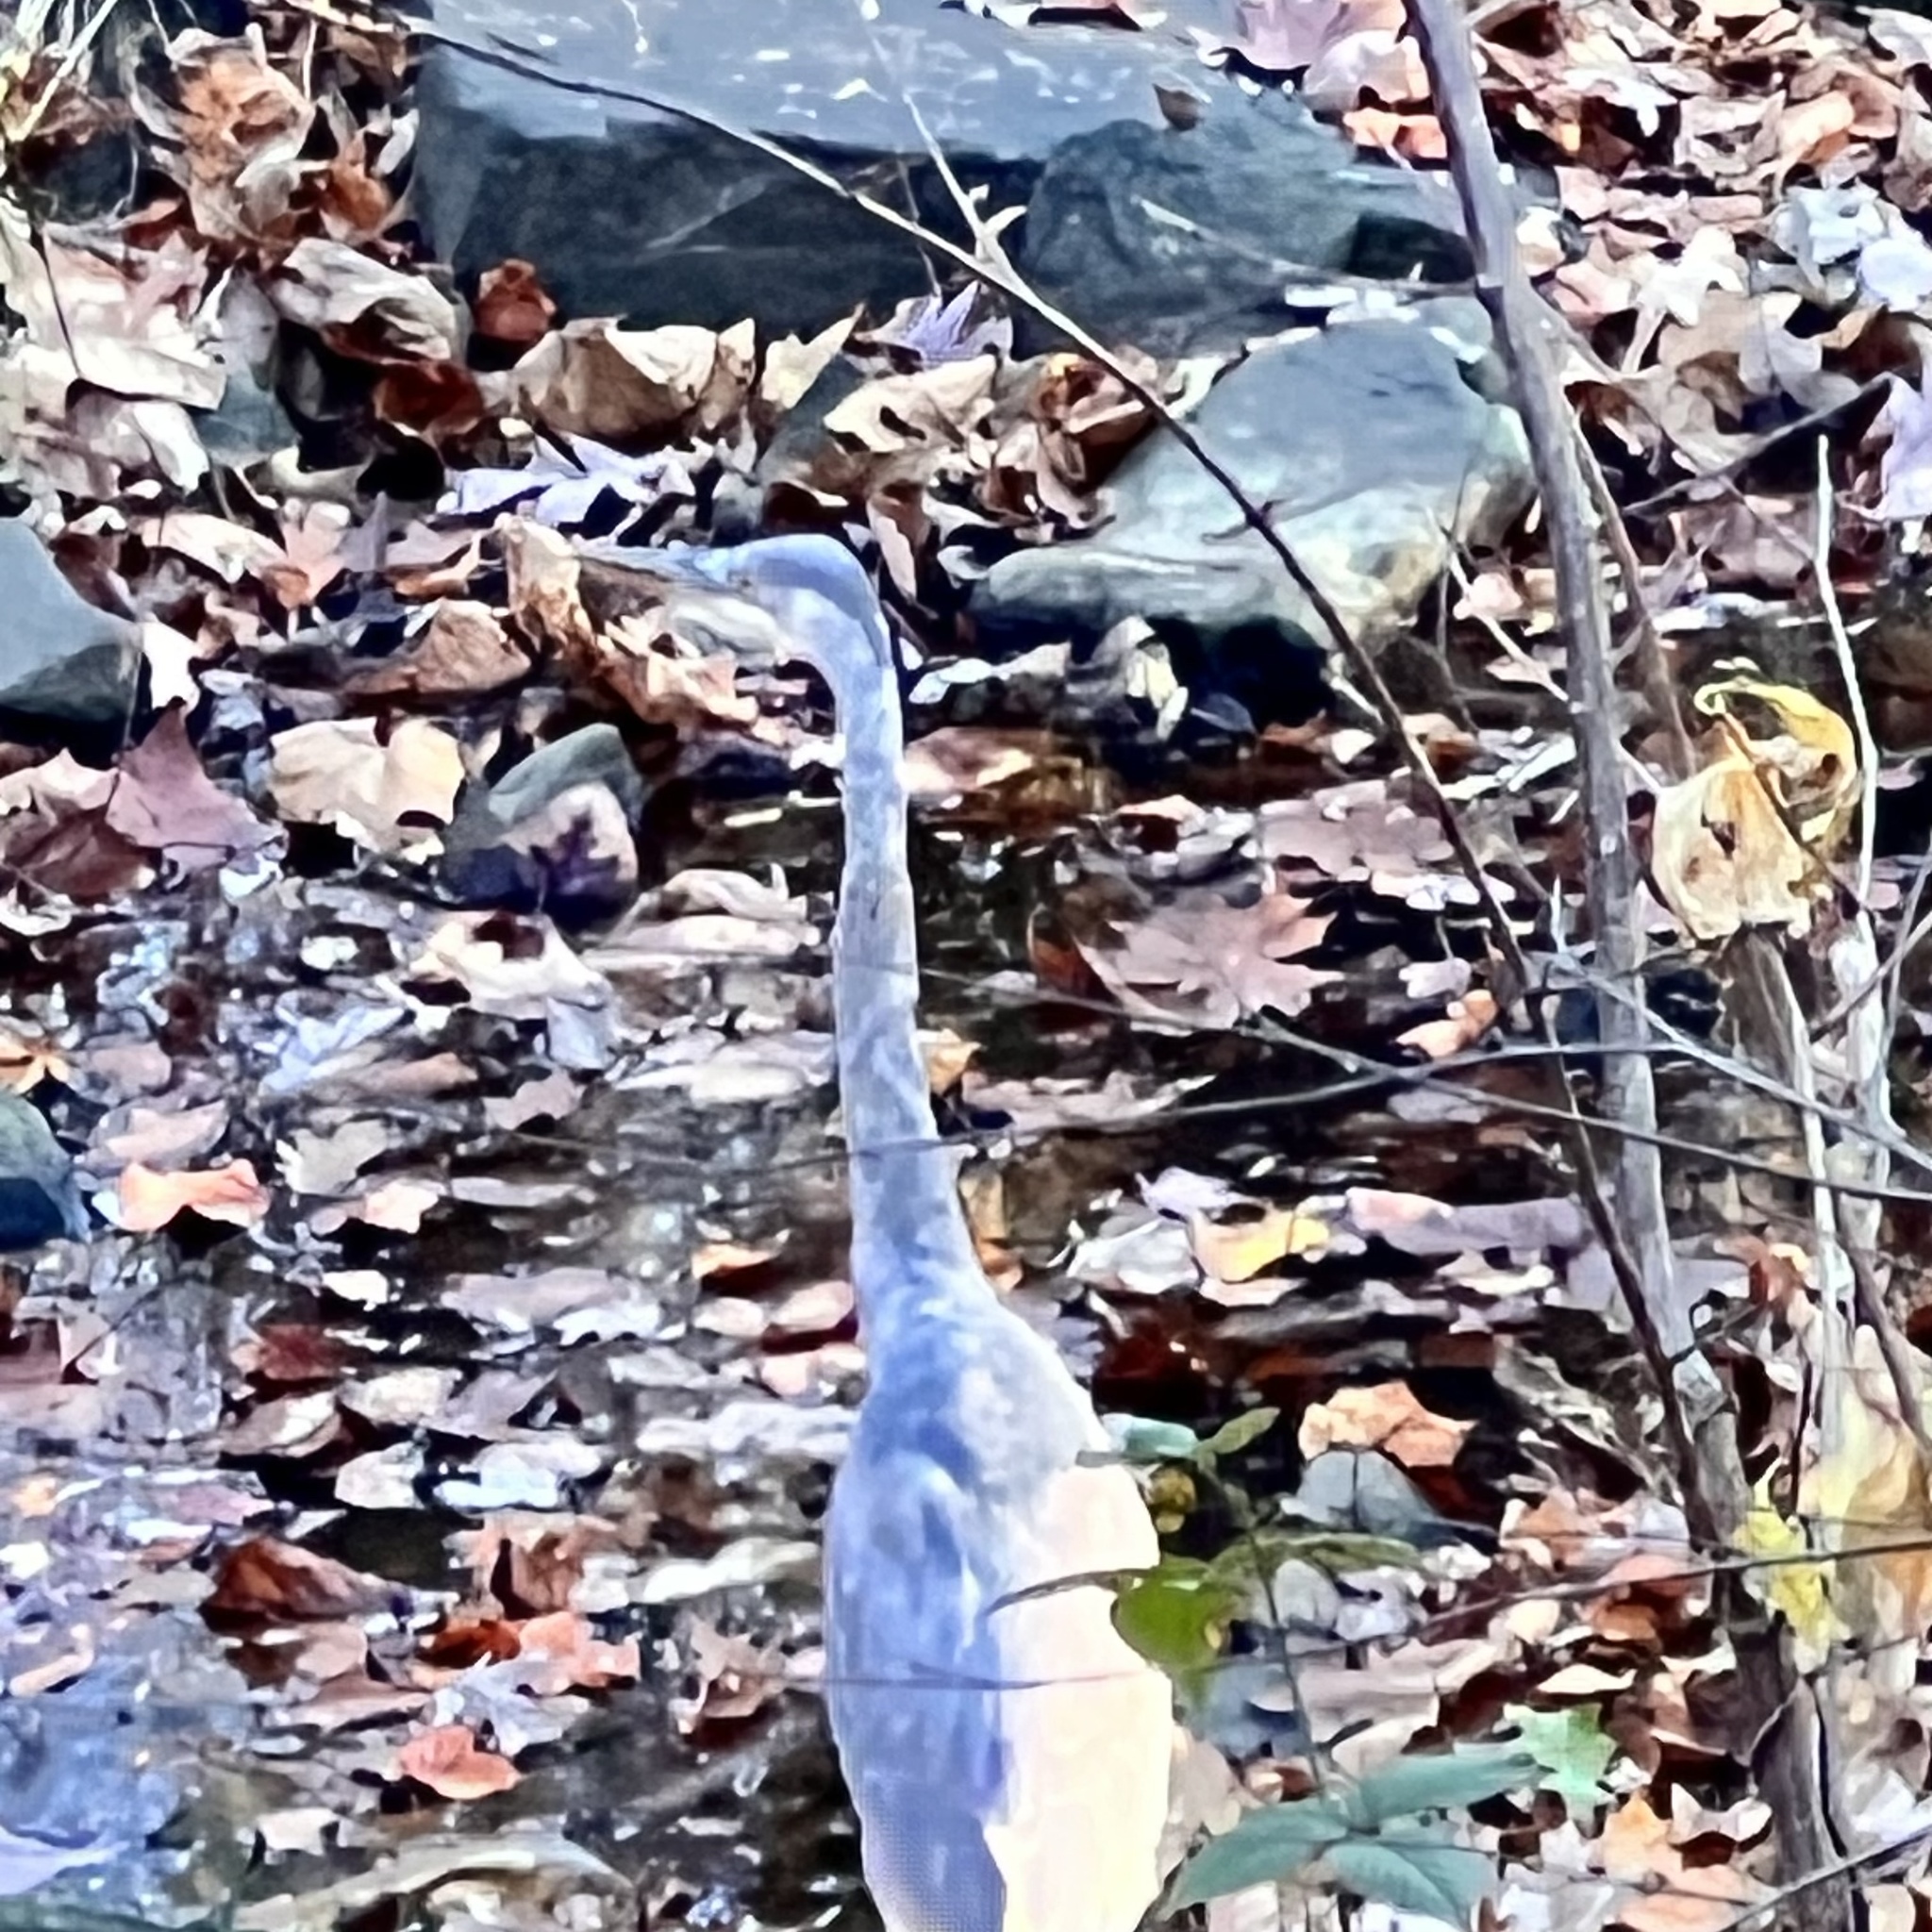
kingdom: Animalia
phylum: Chordata
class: Aves
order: Pelecaniformes
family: Ardeidae
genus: Ardea
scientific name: Ardea herodias
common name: Great blue heron
